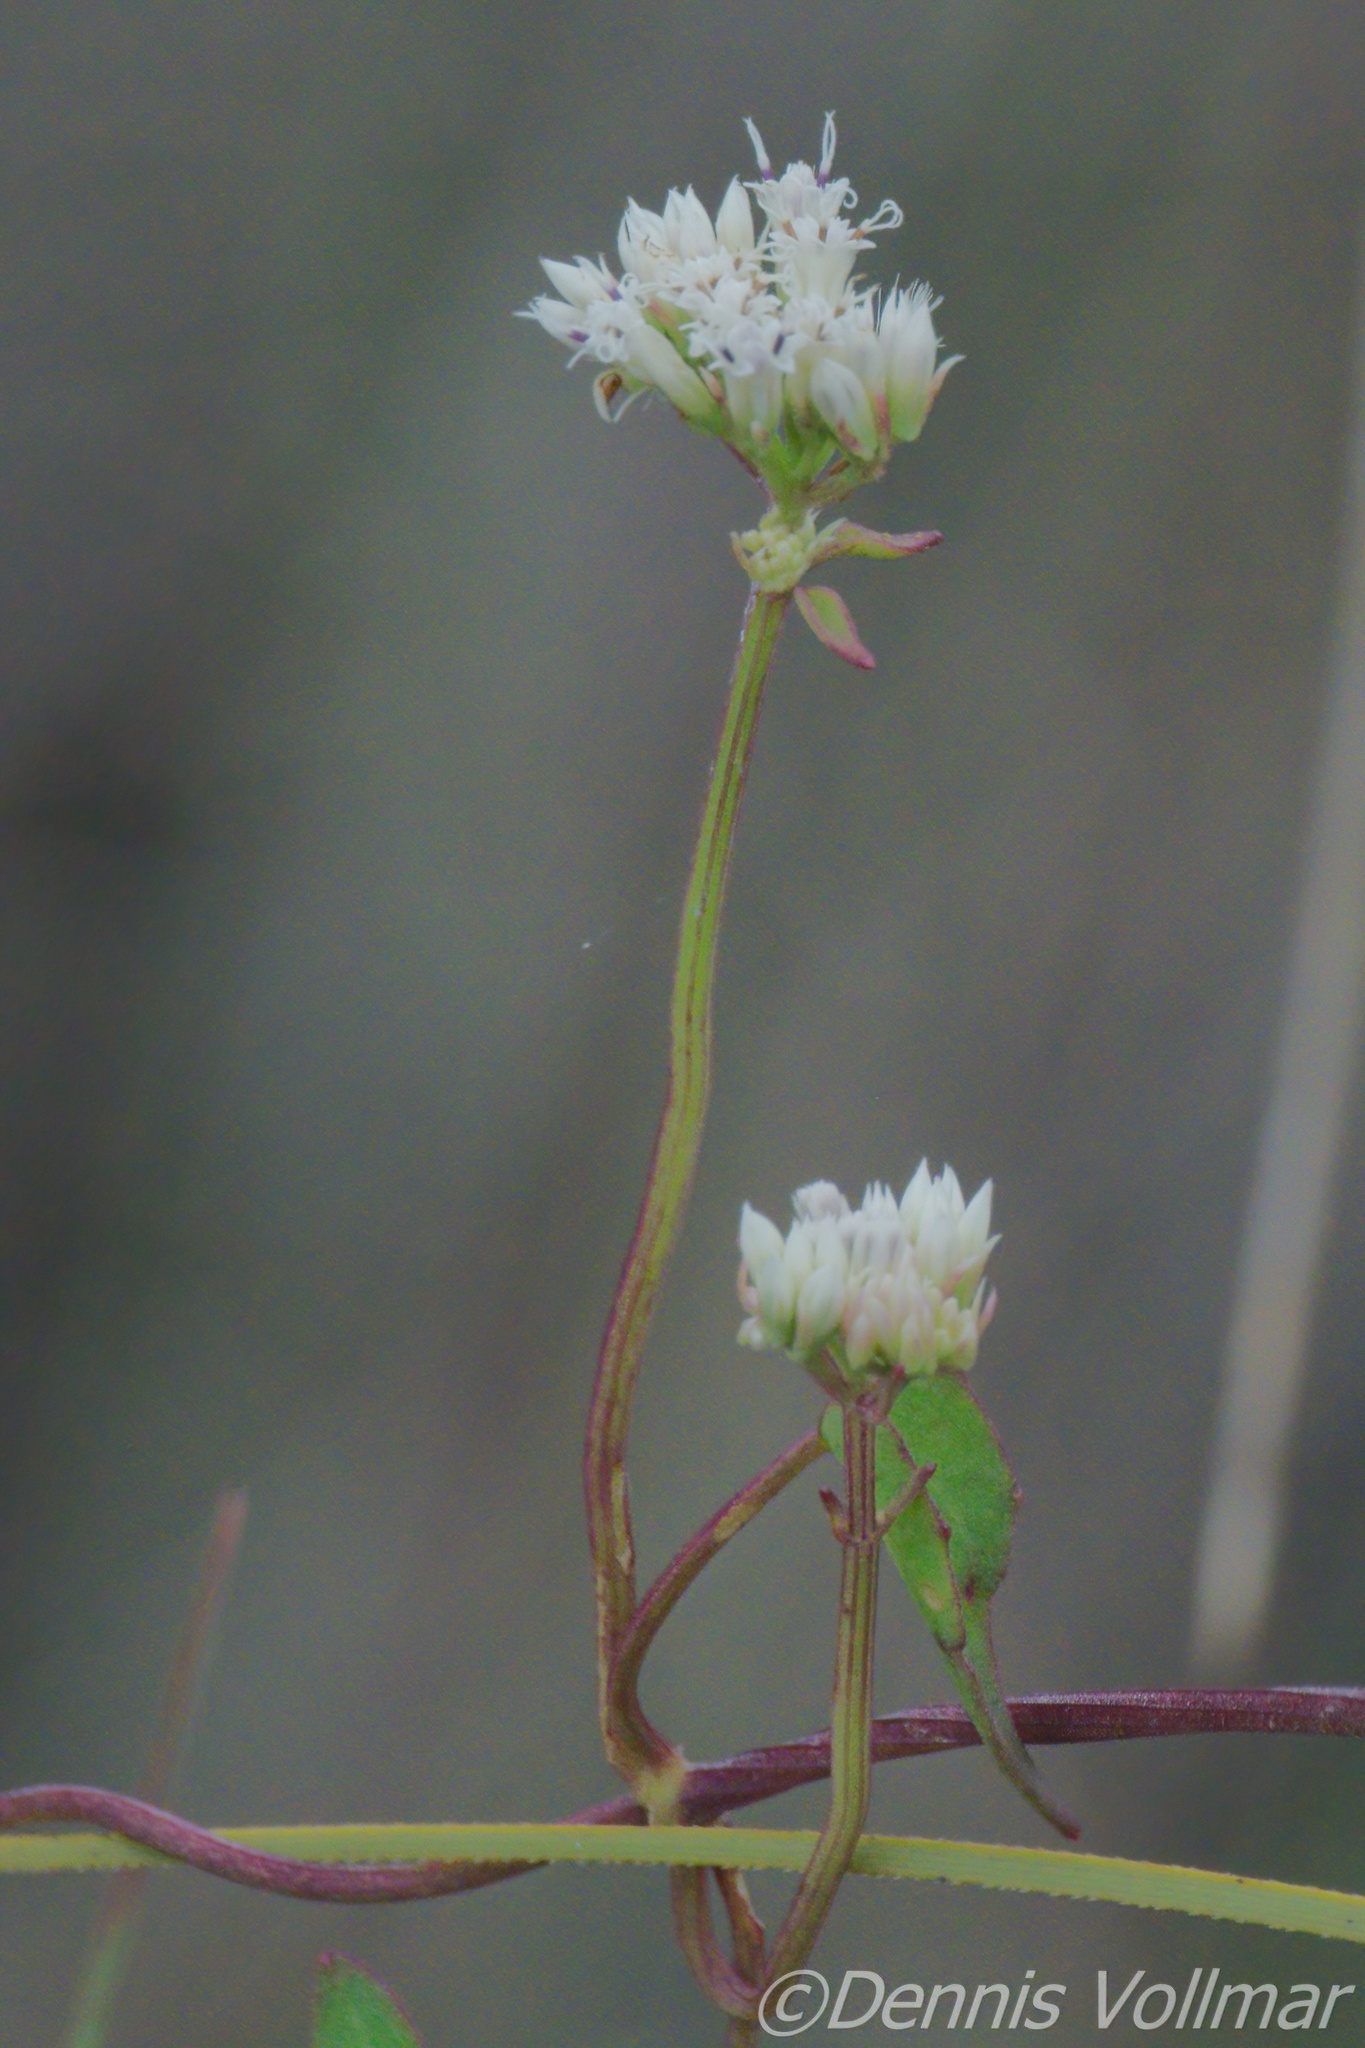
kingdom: Plantae
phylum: Tracheophyta
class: Magnoliopsida
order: Asterales
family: Asteraceae
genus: Mikania
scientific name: Mikania scandens
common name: Climbing hempvine
